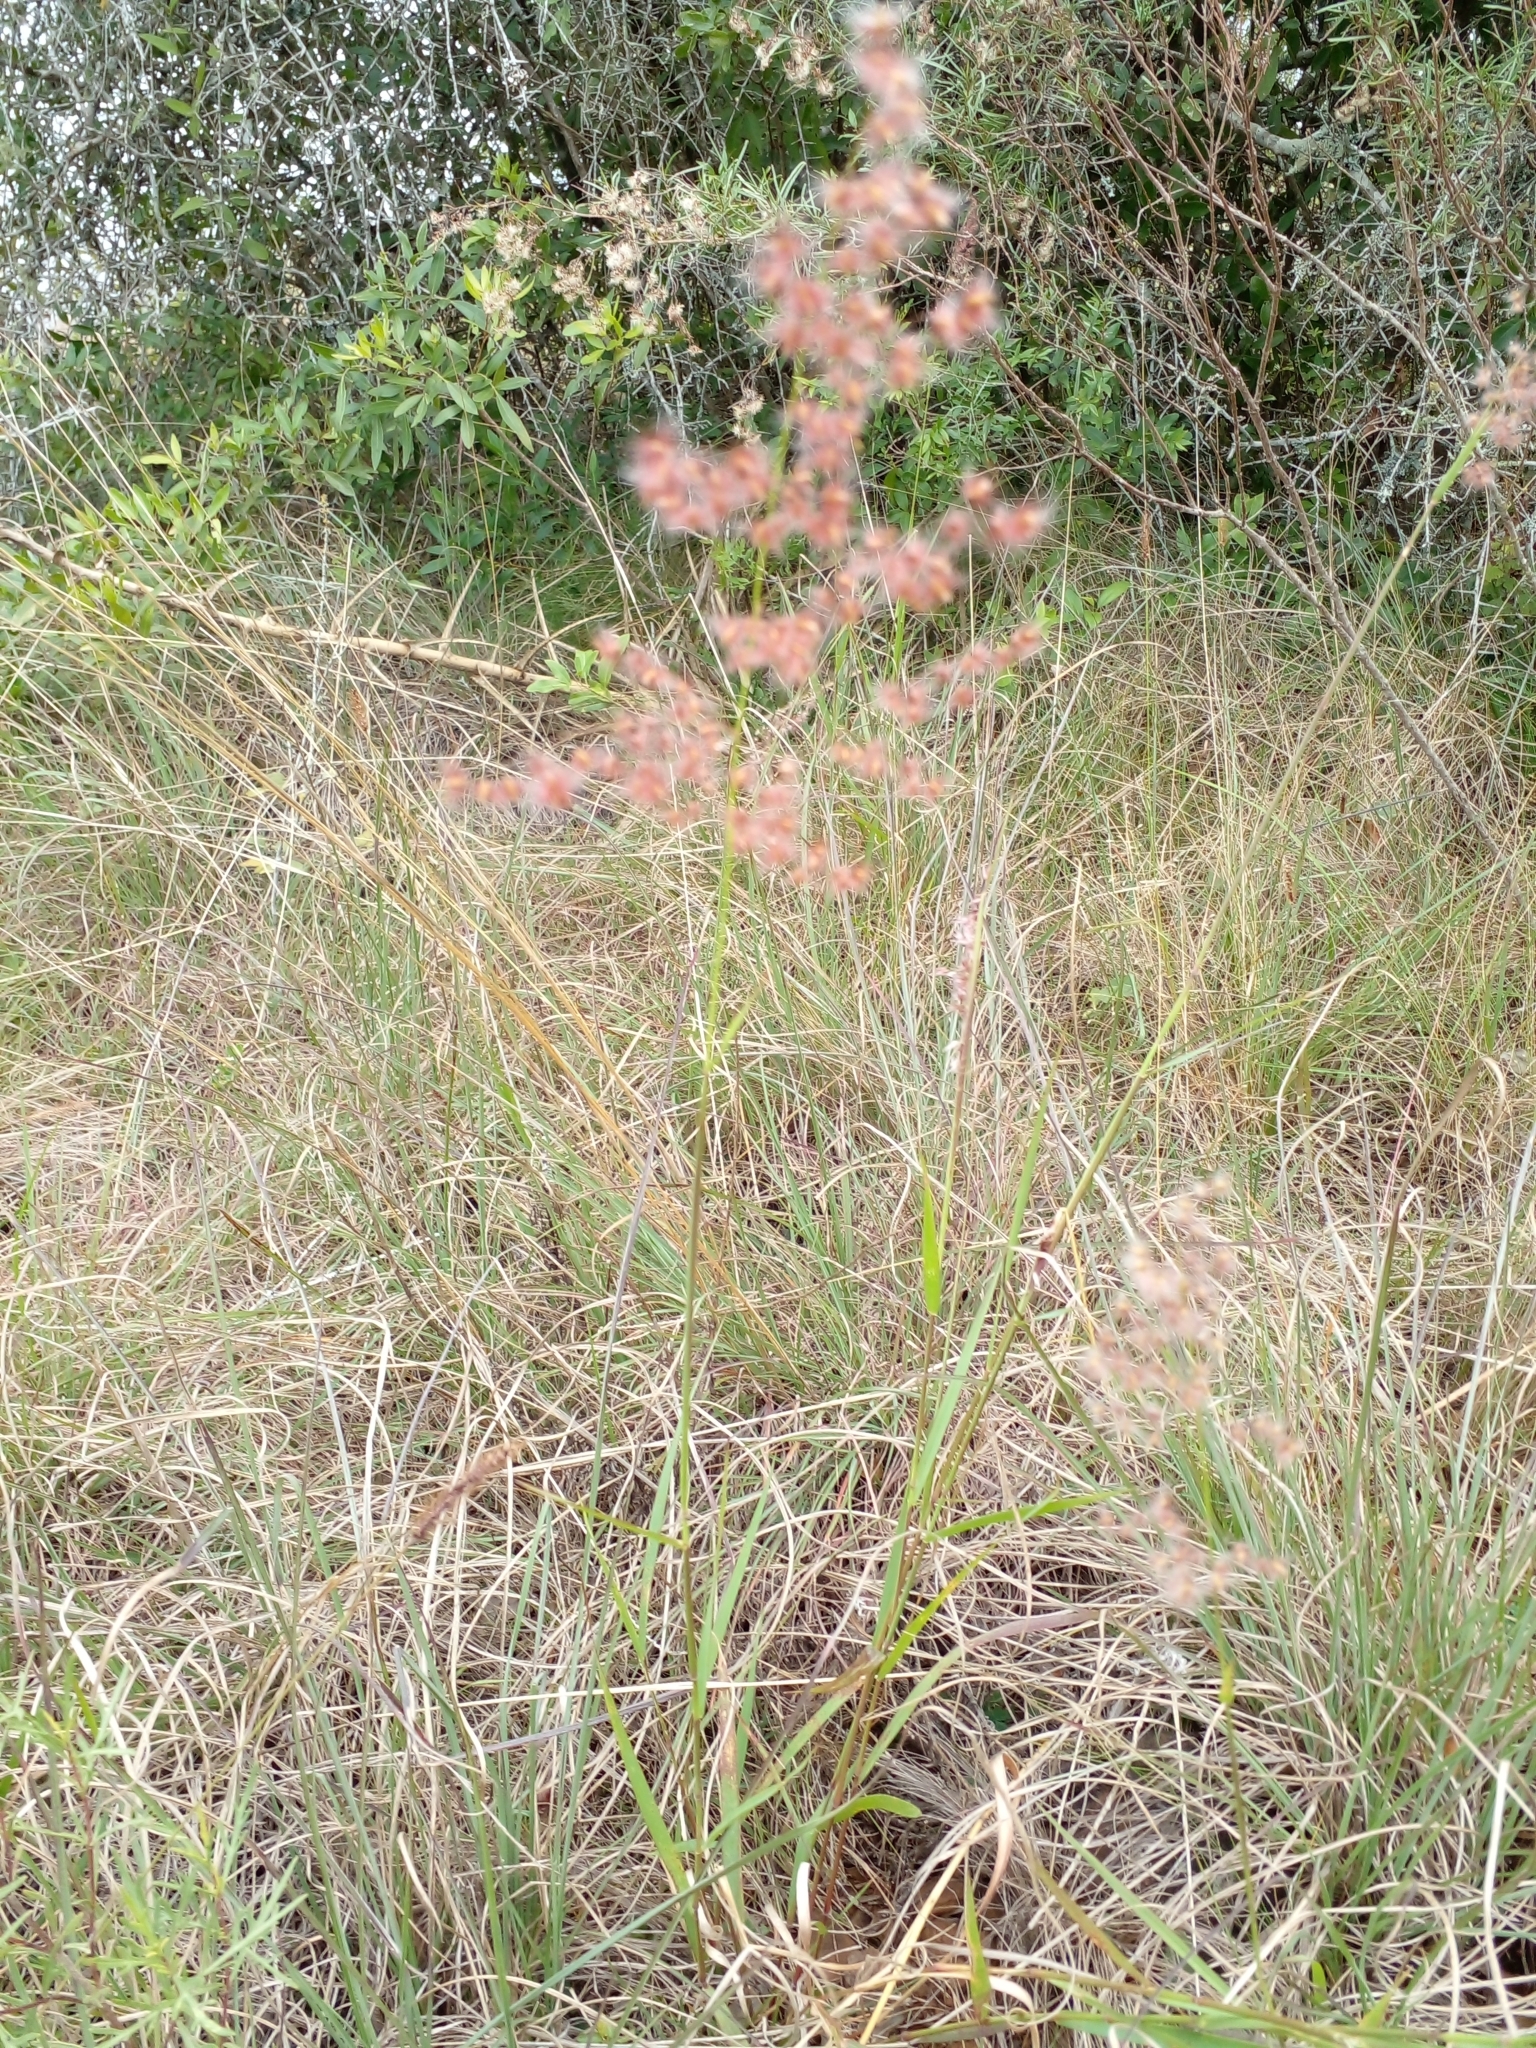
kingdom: Plantae
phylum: Tracheophyta
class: Liliopsida
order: Poales
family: Poaceae
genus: Melinis
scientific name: Melinis repens
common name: Rose natal grass
